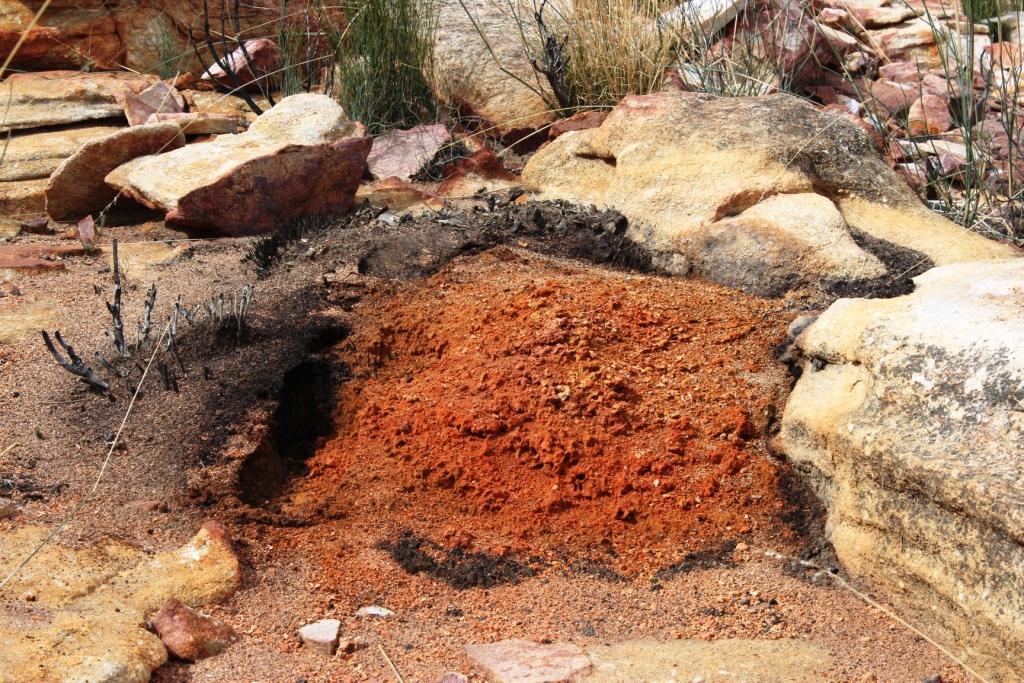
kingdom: Animalia
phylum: Arthropoda
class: Insecta
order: Blattodea
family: Termitidae
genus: Amitermes
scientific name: Amitermes hastatus
